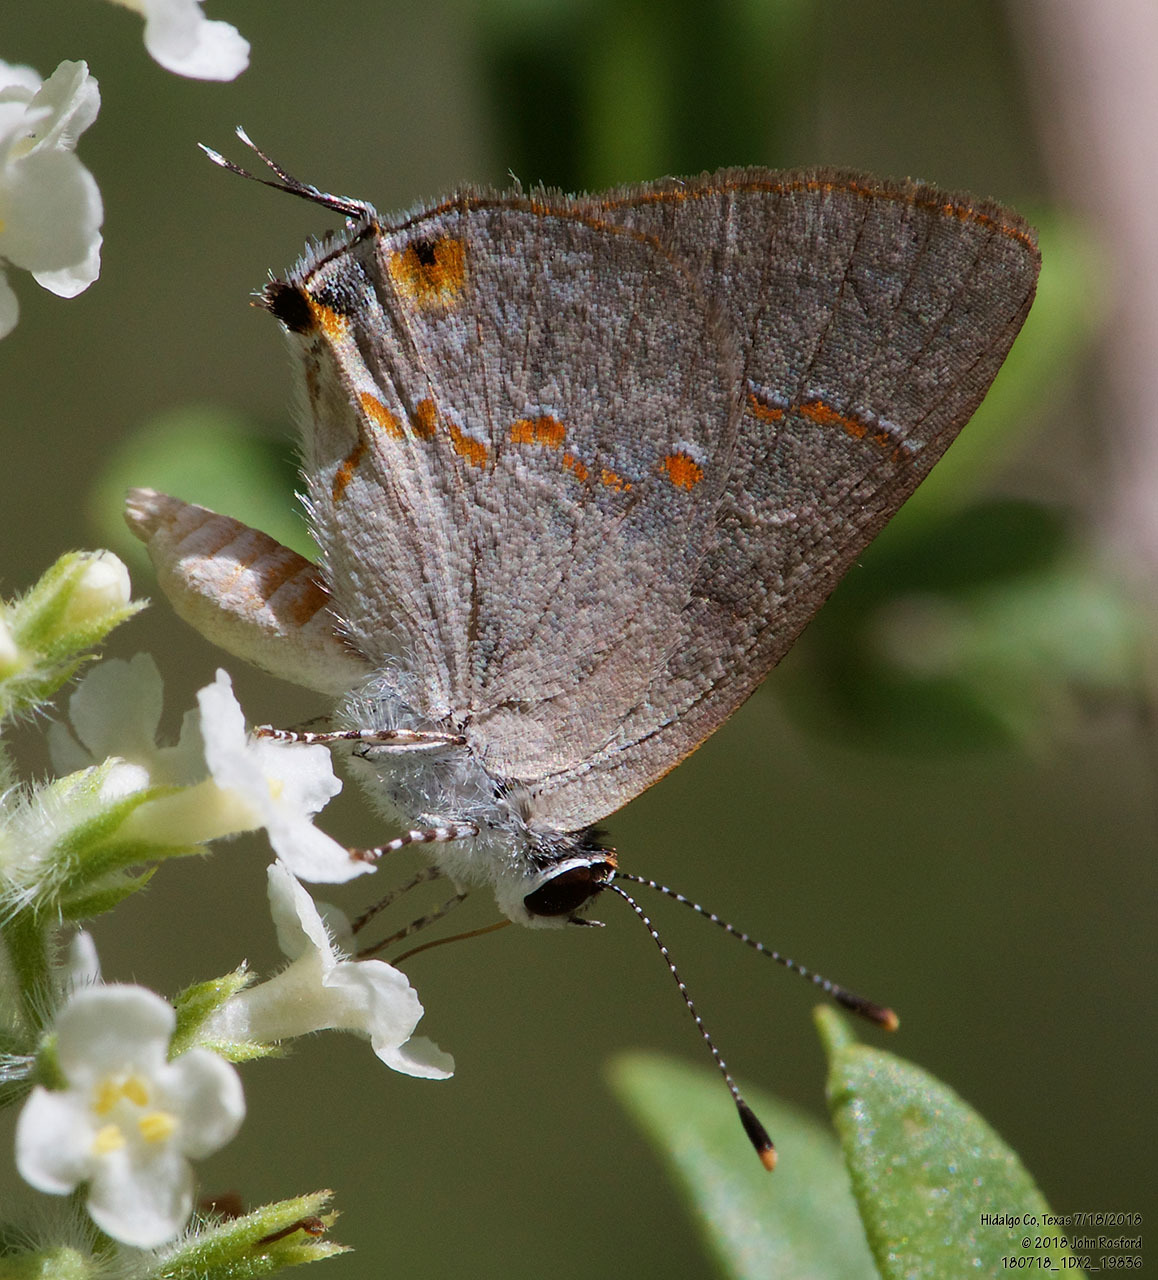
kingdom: Animalia
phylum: Arthropoda
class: Insecta
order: Lepidoptera
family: Lycaenidae
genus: Thecla
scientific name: Thecla azia
